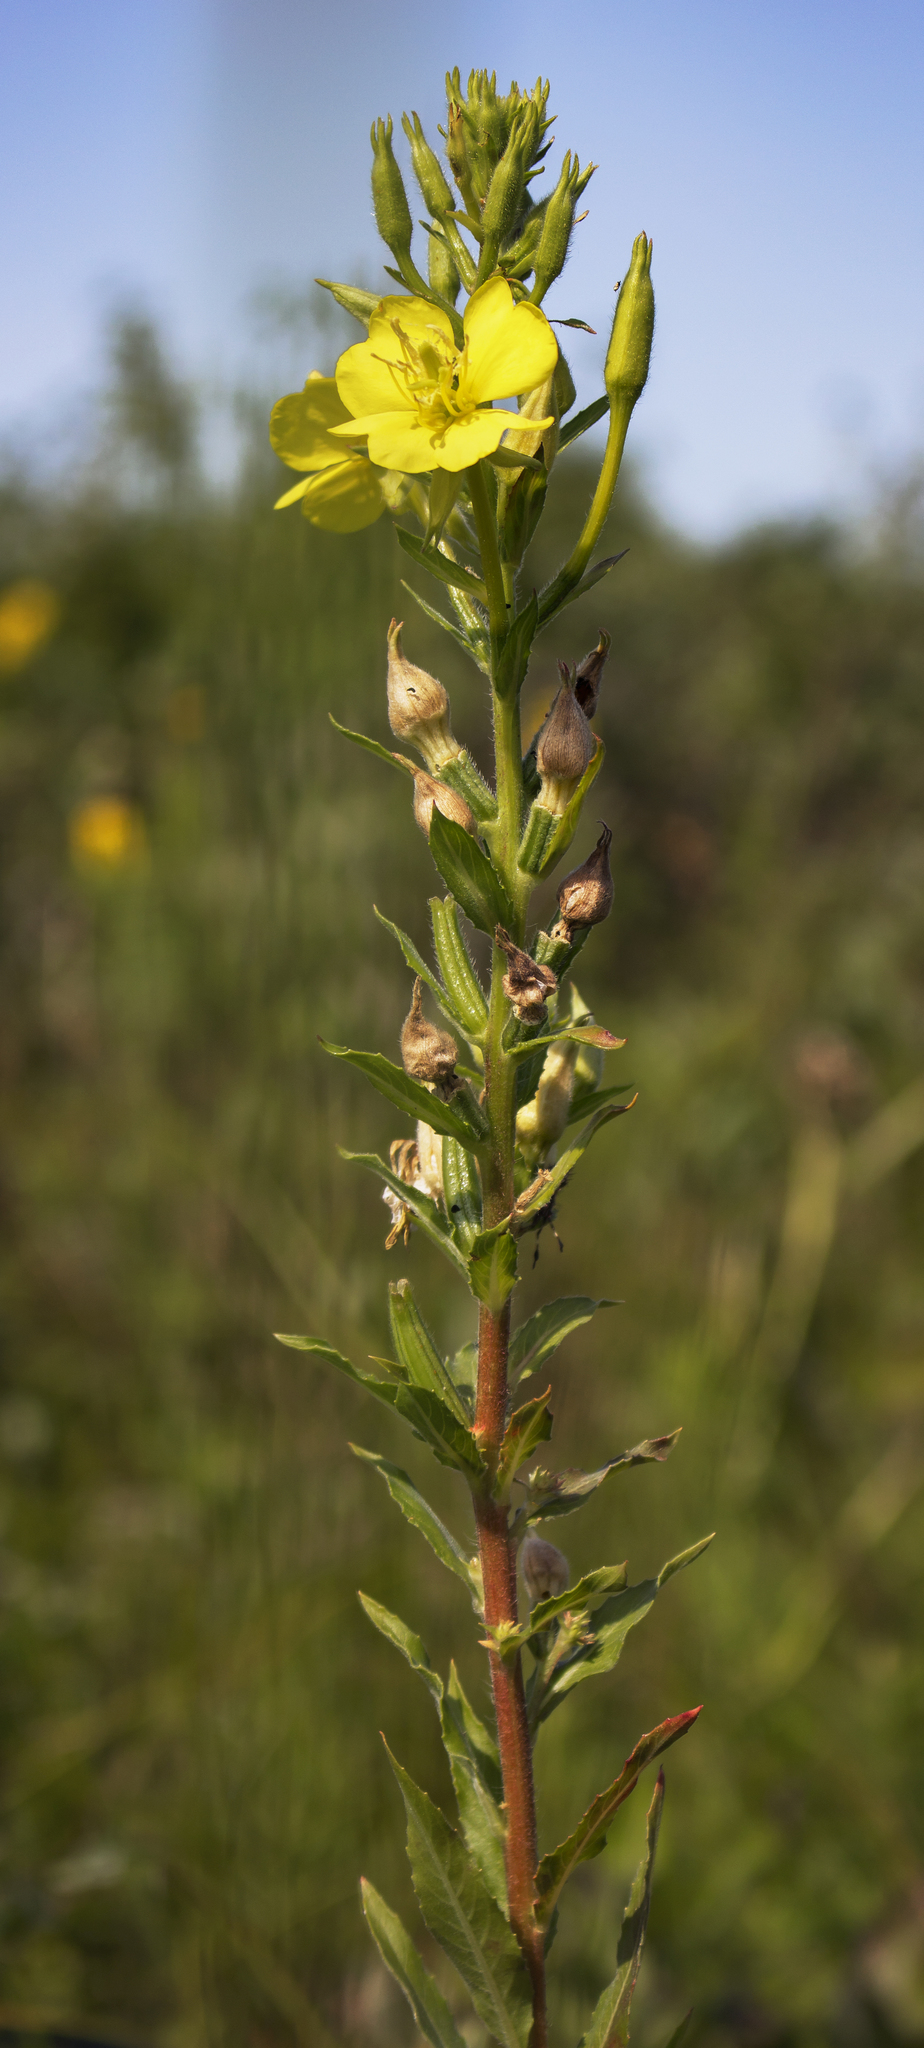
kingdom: Plantae
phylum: Tracheophyta
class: Magnoliopsida
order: Myrtales
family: Onagraceae
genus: Oenothera
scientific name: Oenothera biennis
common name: Common evening-primrose
